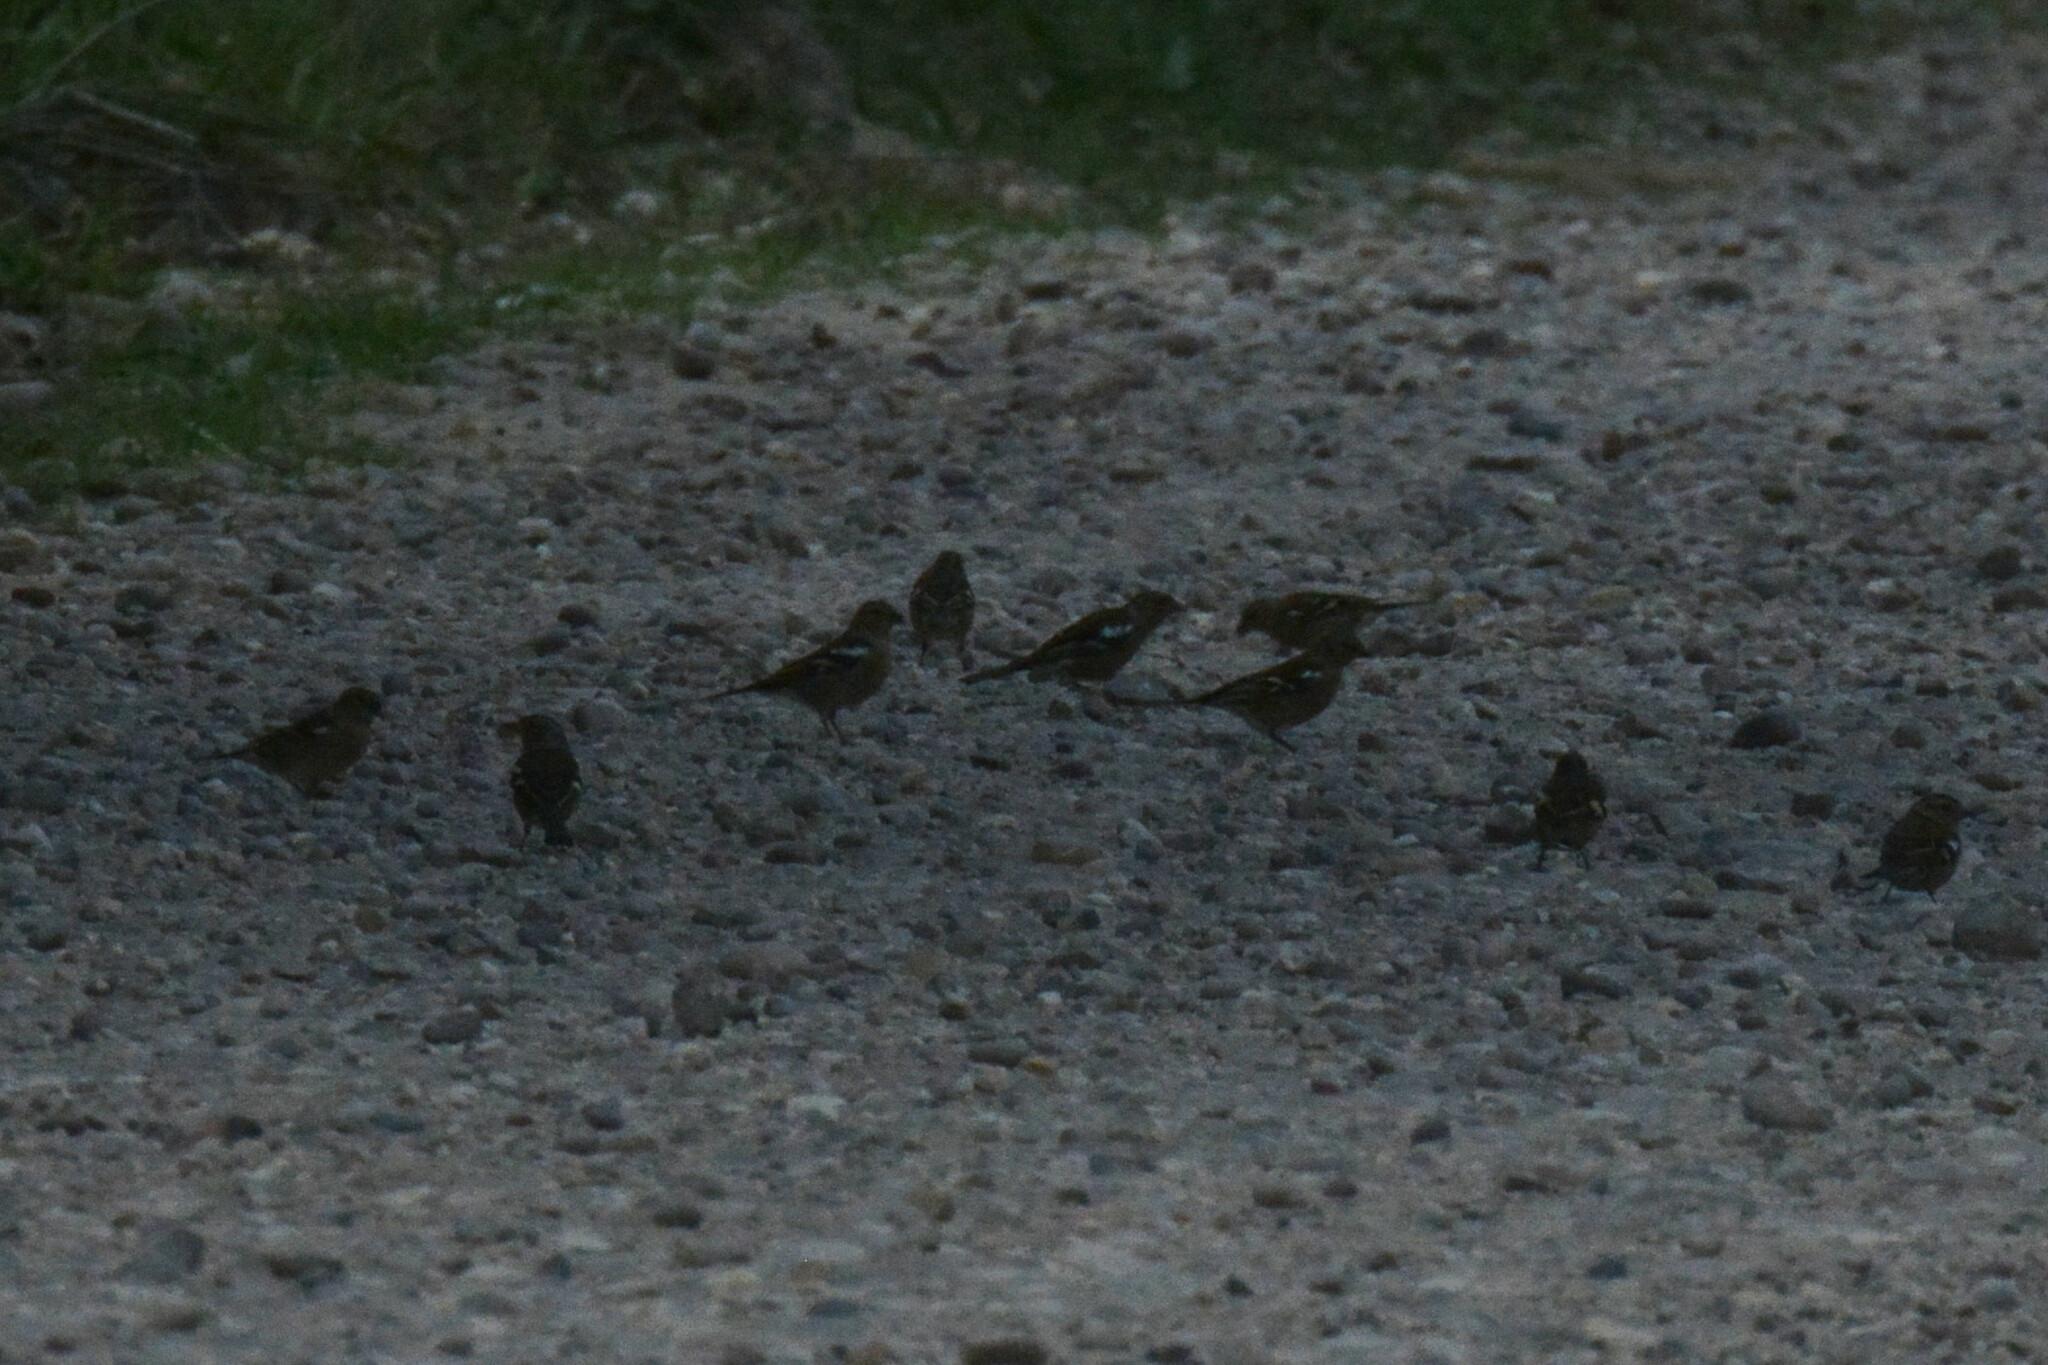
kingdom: Animalia
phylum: Chordata
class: Aves
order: Passeriformes
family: Fringillidae
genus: Fringilla
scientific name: Fringilla coelebs
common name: Common chaffinch
